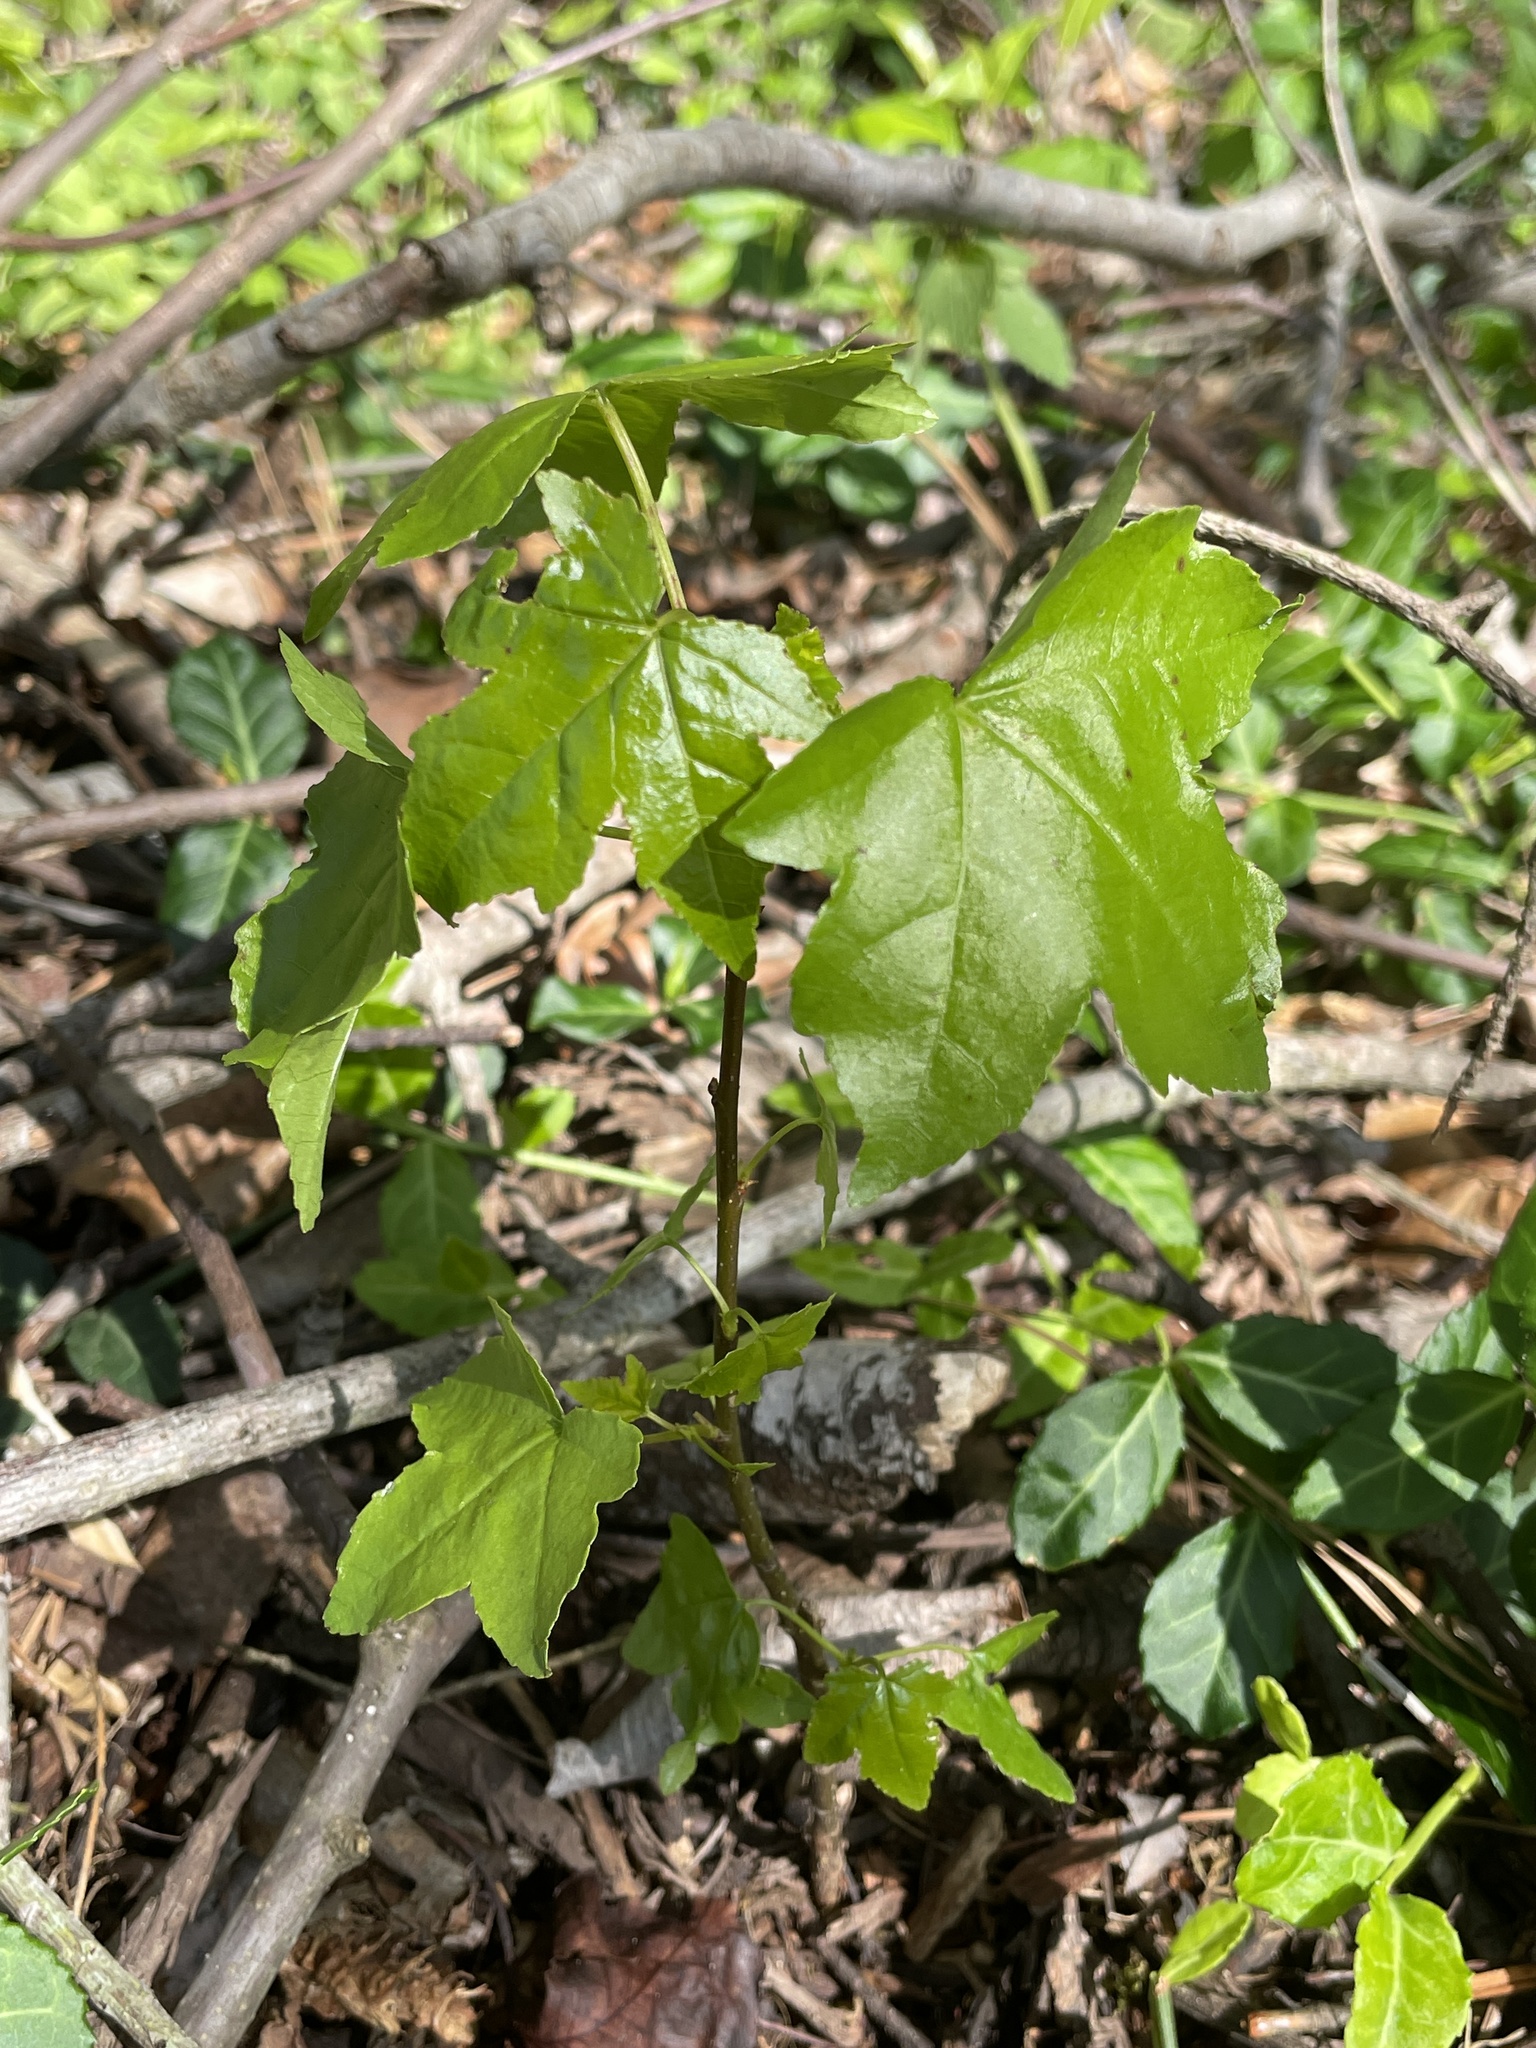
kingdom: Plantae
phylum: Tracheophyta
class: Magnoliopsida
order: Saxifragales
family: Altingiaceae
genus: Liquidambar
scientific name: Liquidambar styraciflua
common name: Sweet gum
